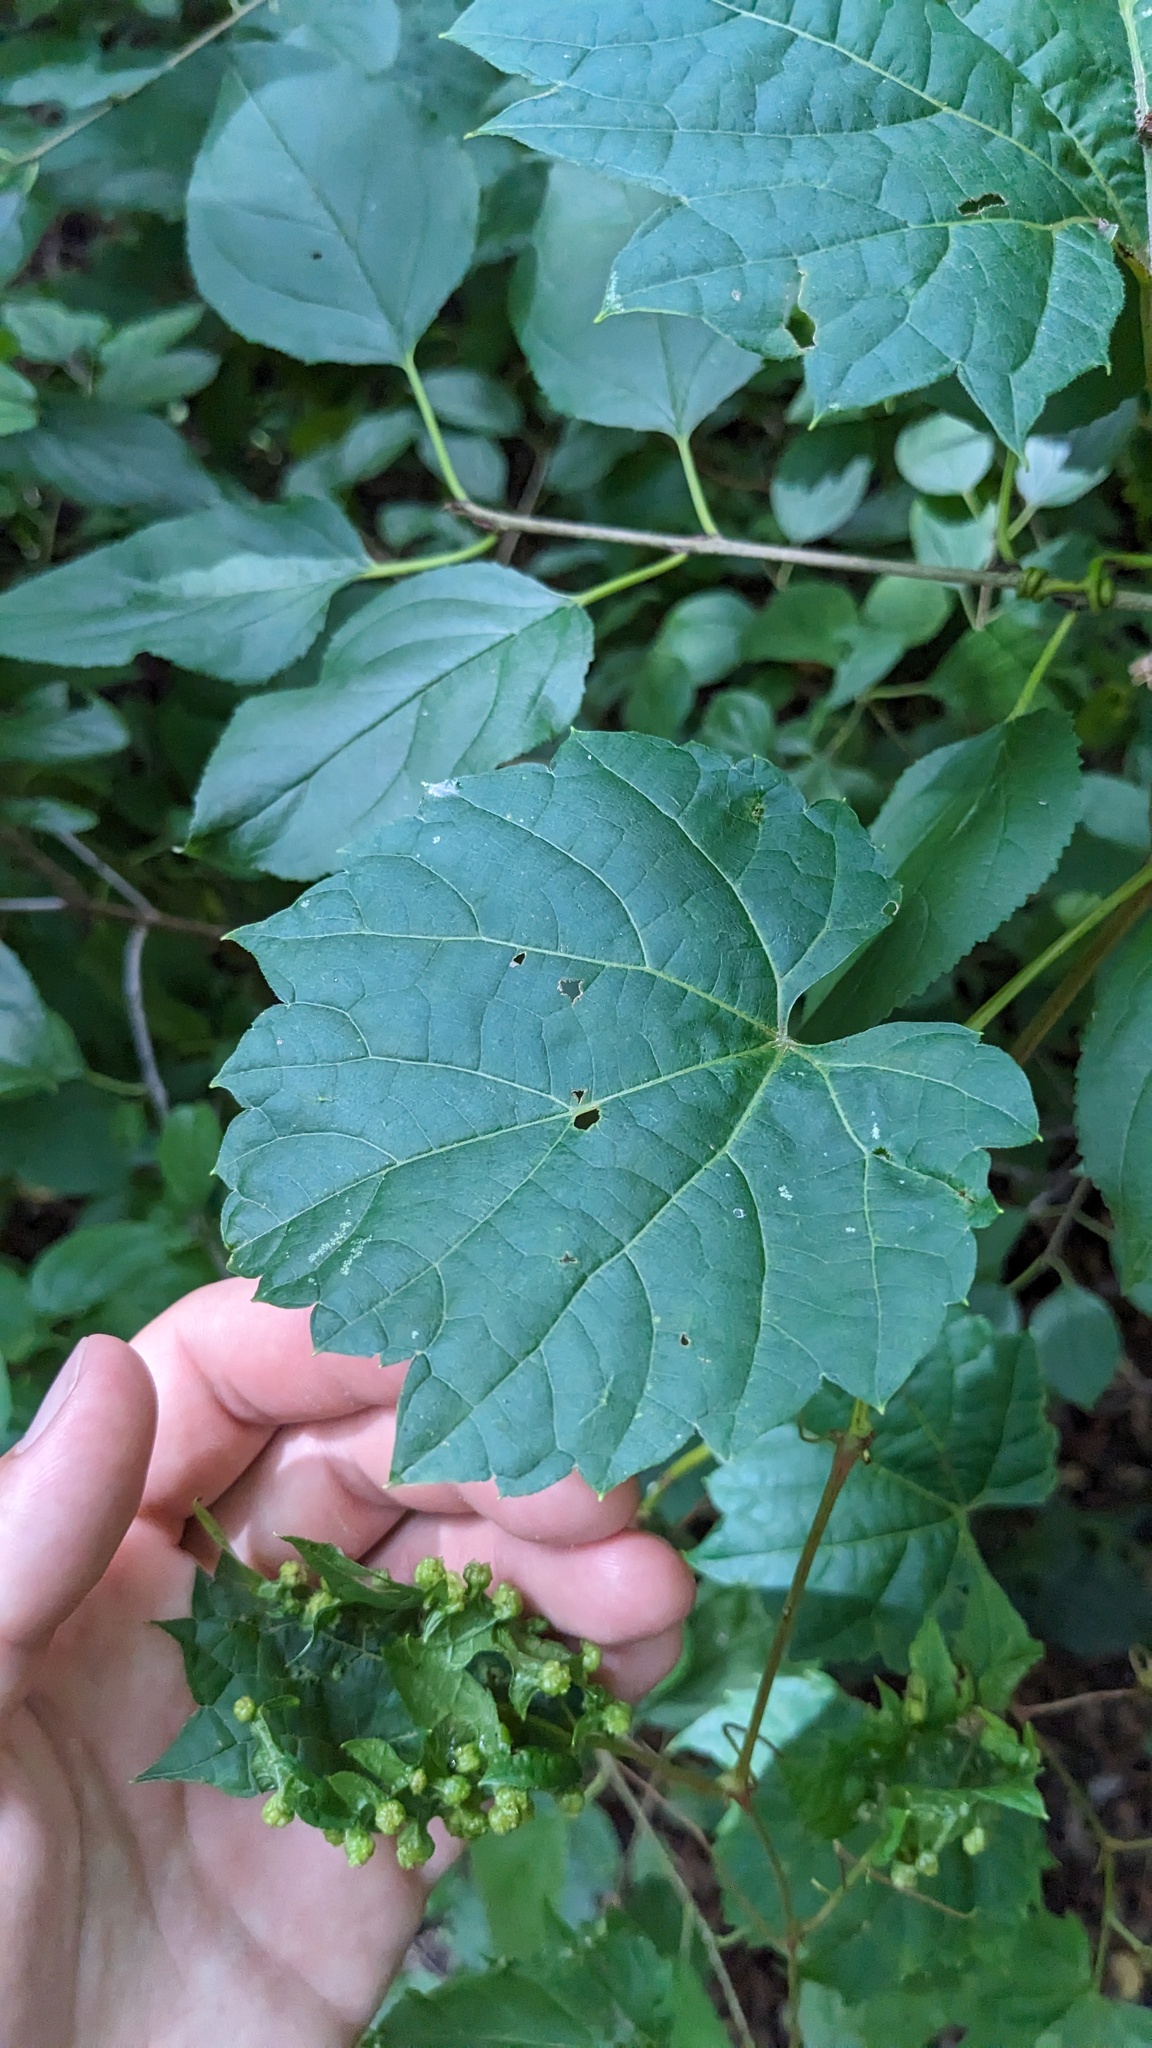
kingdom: Plantae
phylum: Tracheophyta
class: Magnoliopsida
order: Vitales
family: Vitaceae
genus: Vitis
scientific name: Vitis riparia
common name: Frost grape
